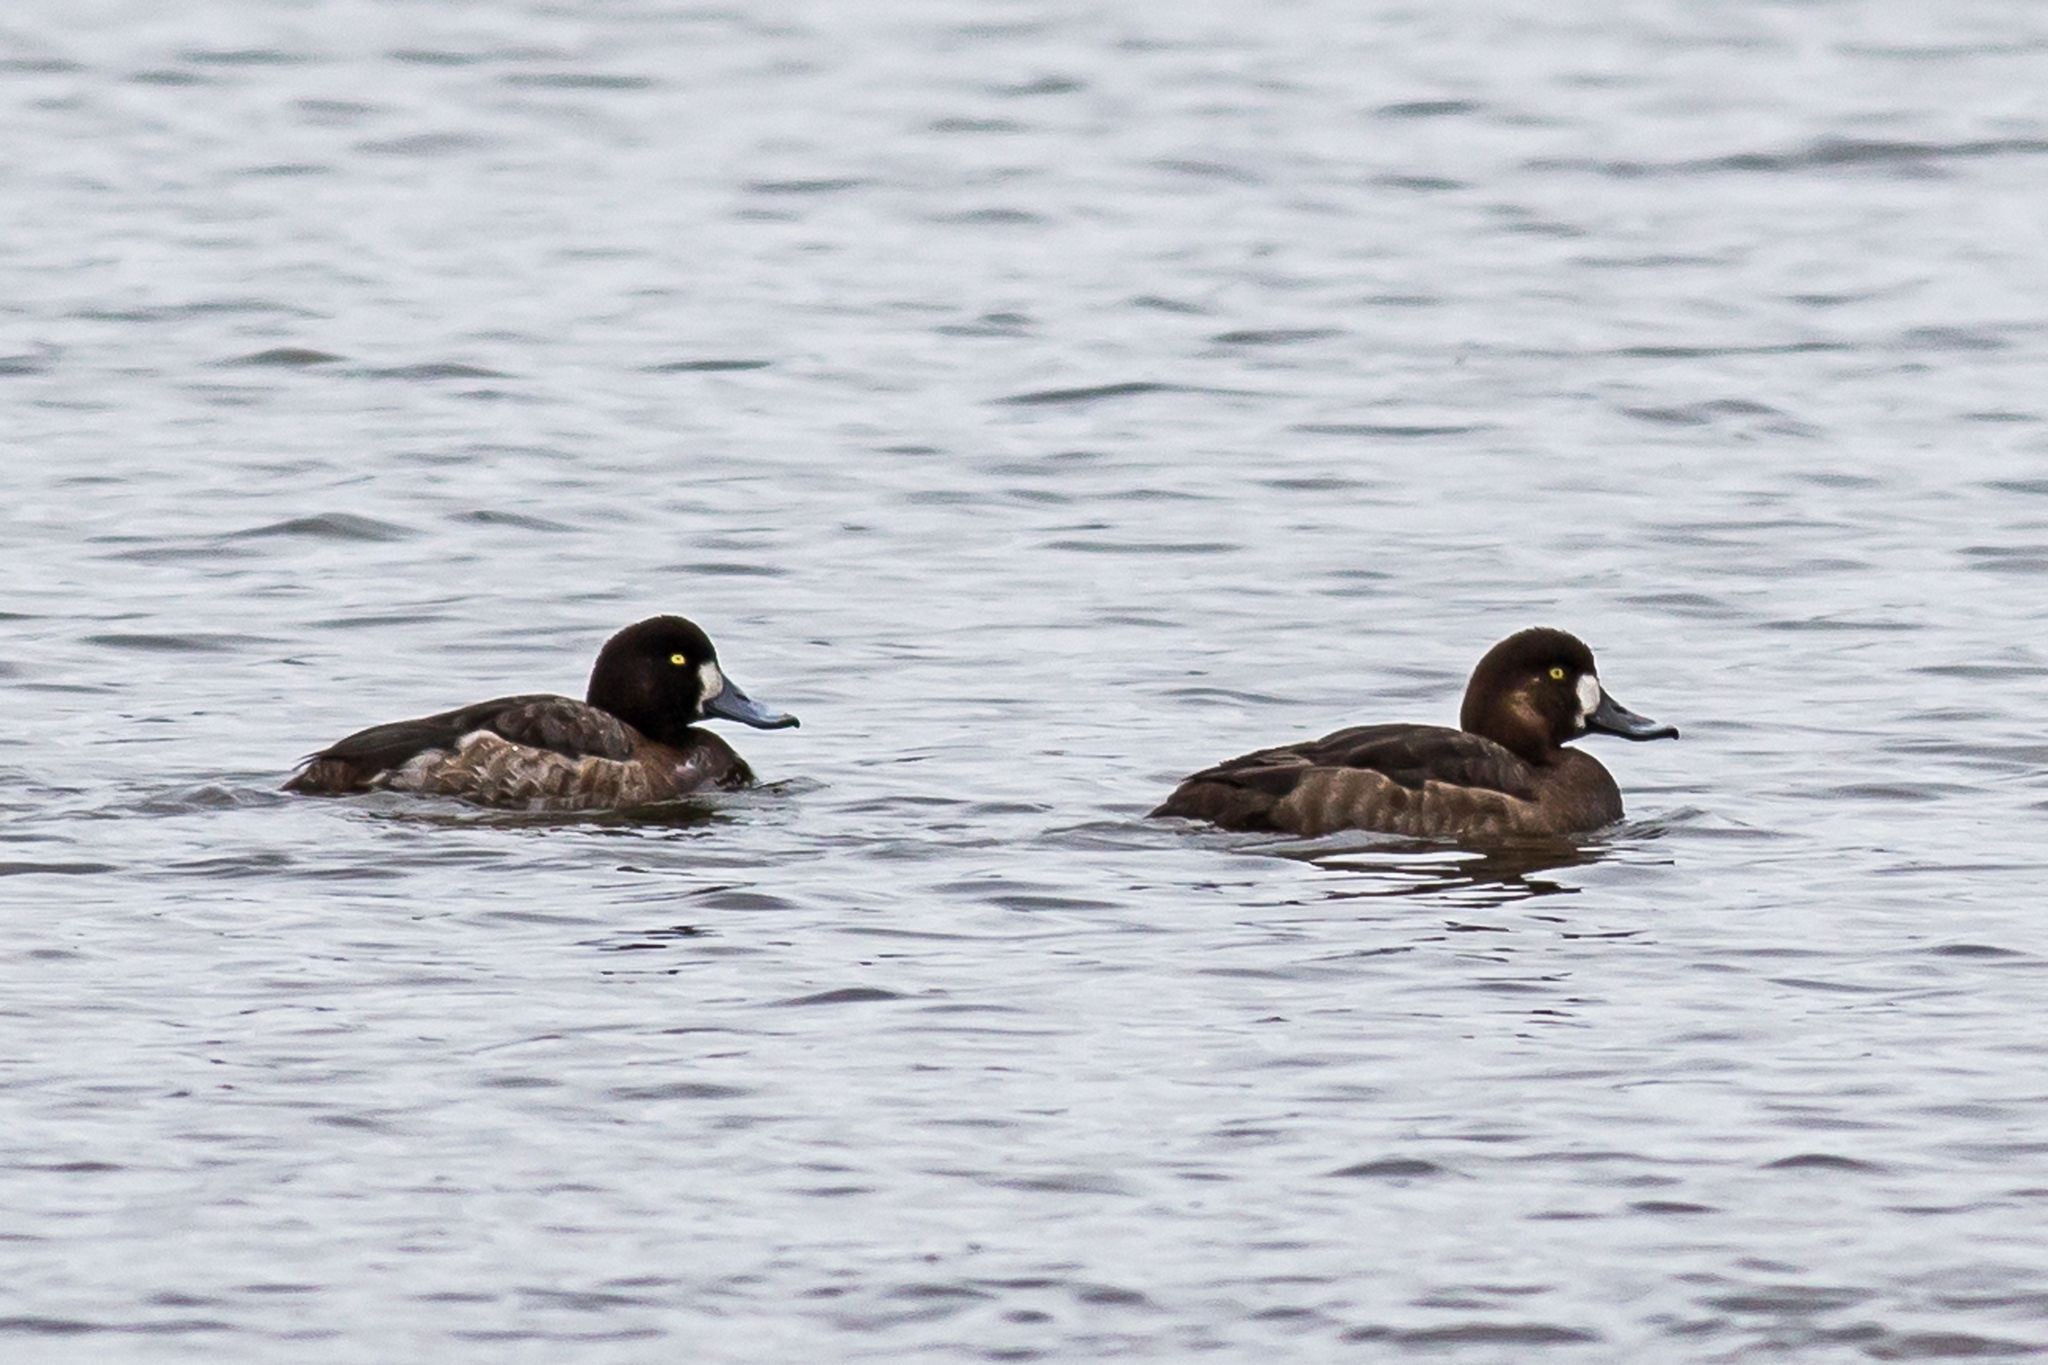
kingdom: Animalia
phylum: Chordata
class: Aves
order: Anseriformes
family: Anatidae
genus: Aythya
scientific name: Aythya marila
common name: Greater scaup
